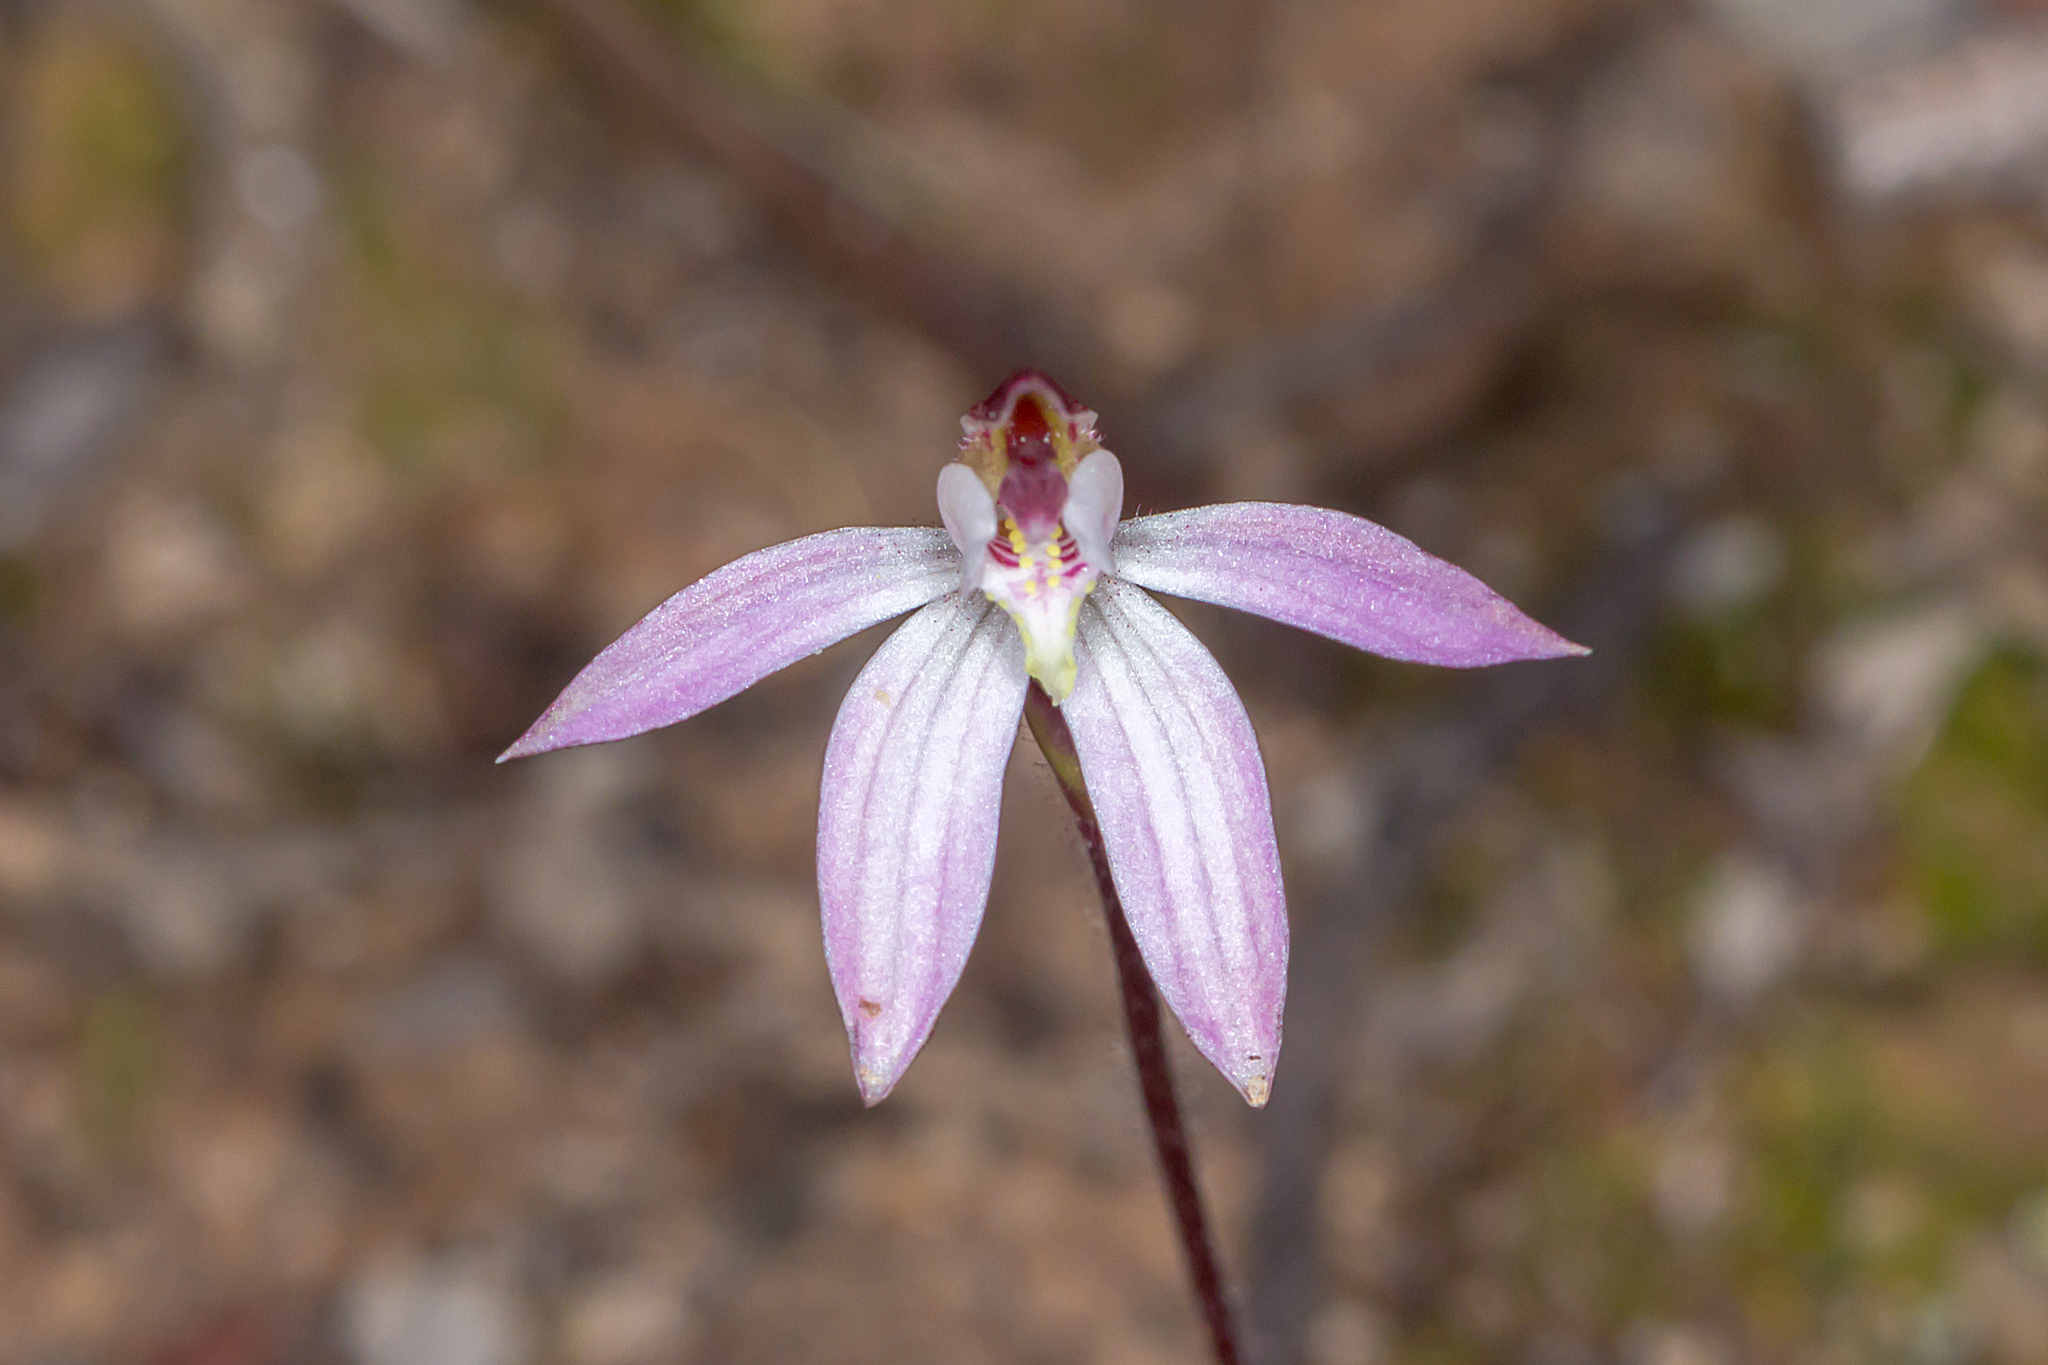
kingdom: Plantae
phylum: Tracheophyta
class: Liliopsida
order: Asparagales
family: Orchidaceae
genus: Caladenia
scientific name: Caladenia fuscata
